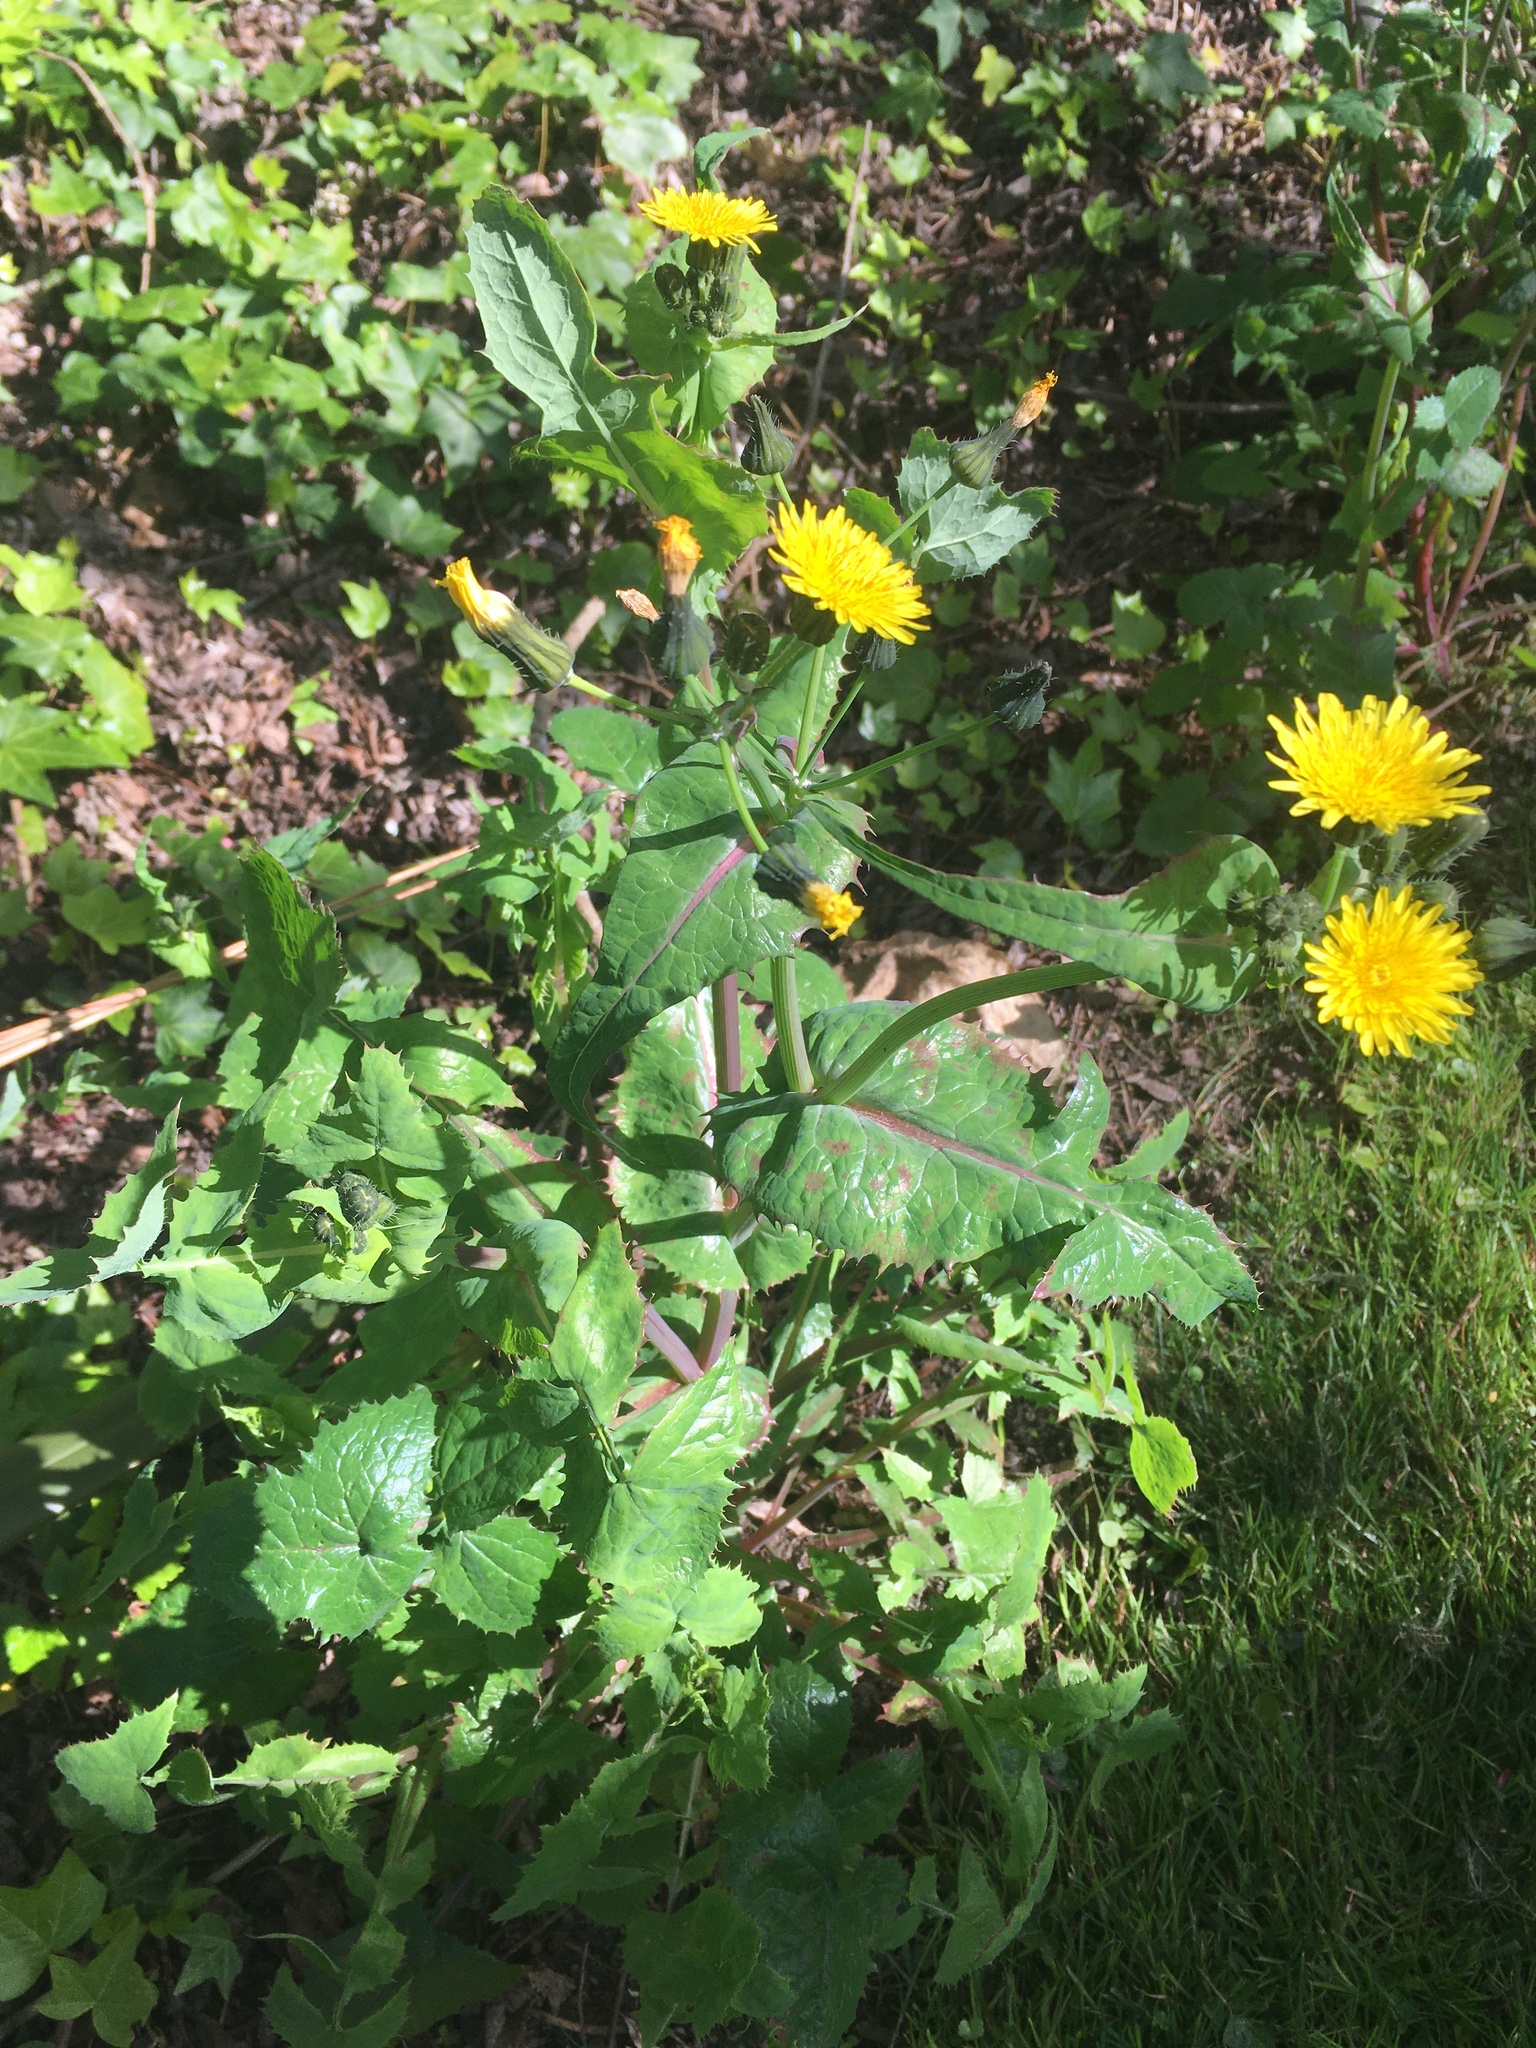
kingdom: Plantae
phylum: Tracheophyta
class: Magnoliopsida
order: Asterales
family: Asteraceae
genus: Sonchus
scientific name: Sonchus oleraceus
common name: Common sowthistle
